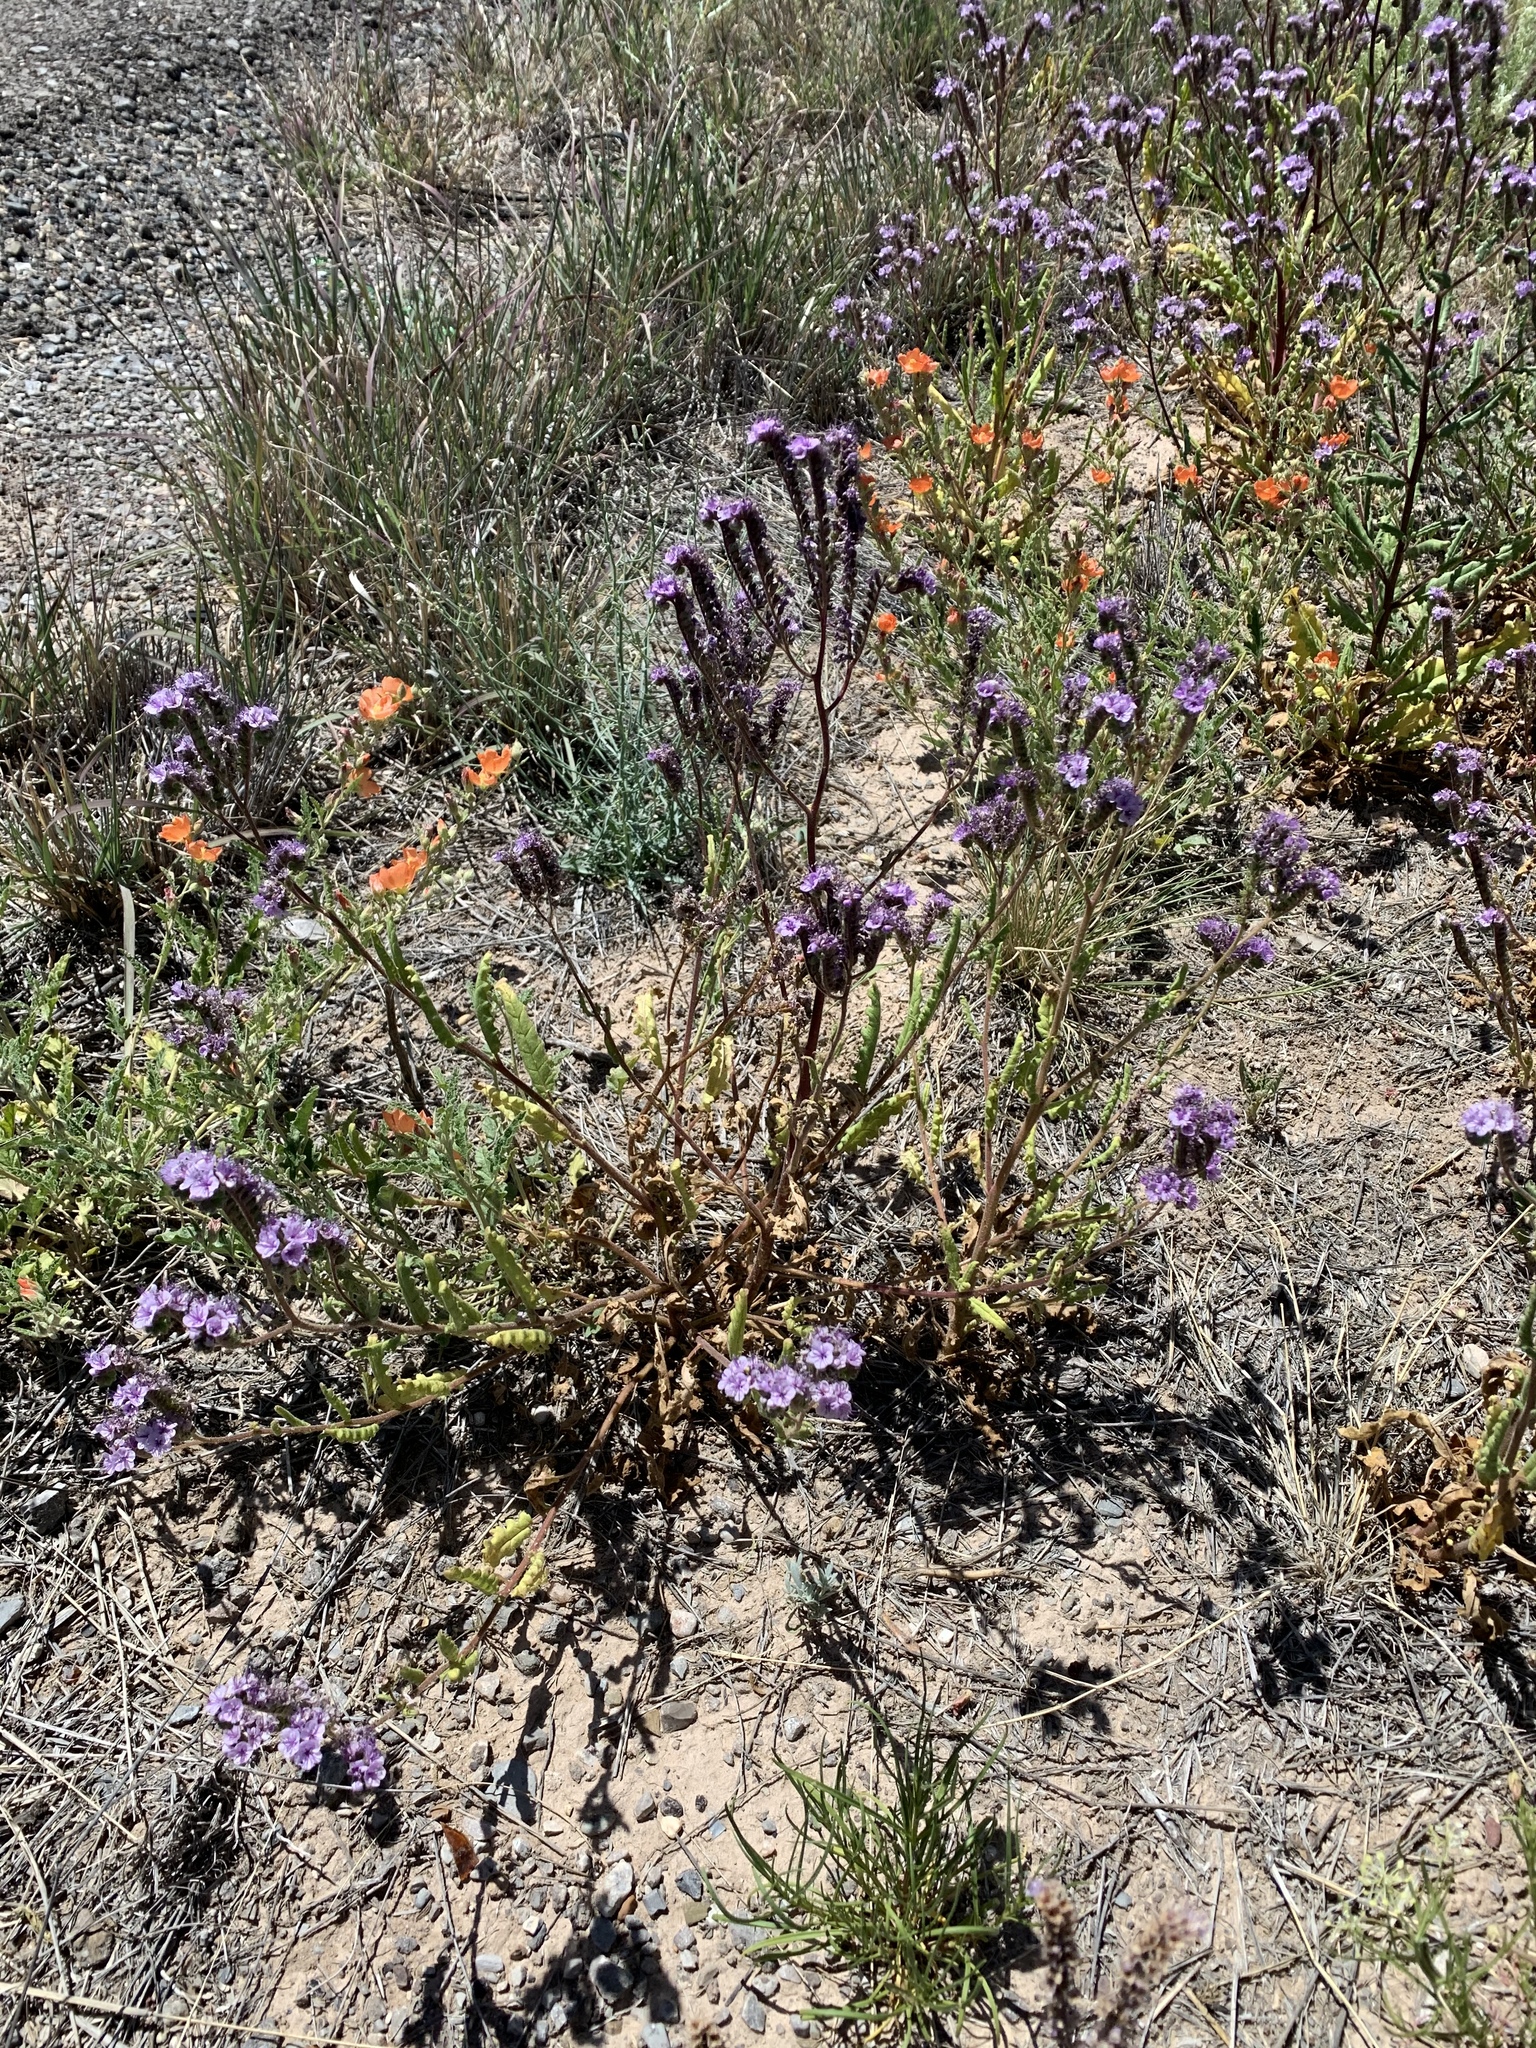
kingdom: Plantae
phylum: Tracheophyta
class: Magnoliopsida
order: Boraginales
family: Hydrophyllaceae
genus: Phacelia
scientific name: Phacelia integrifolia
